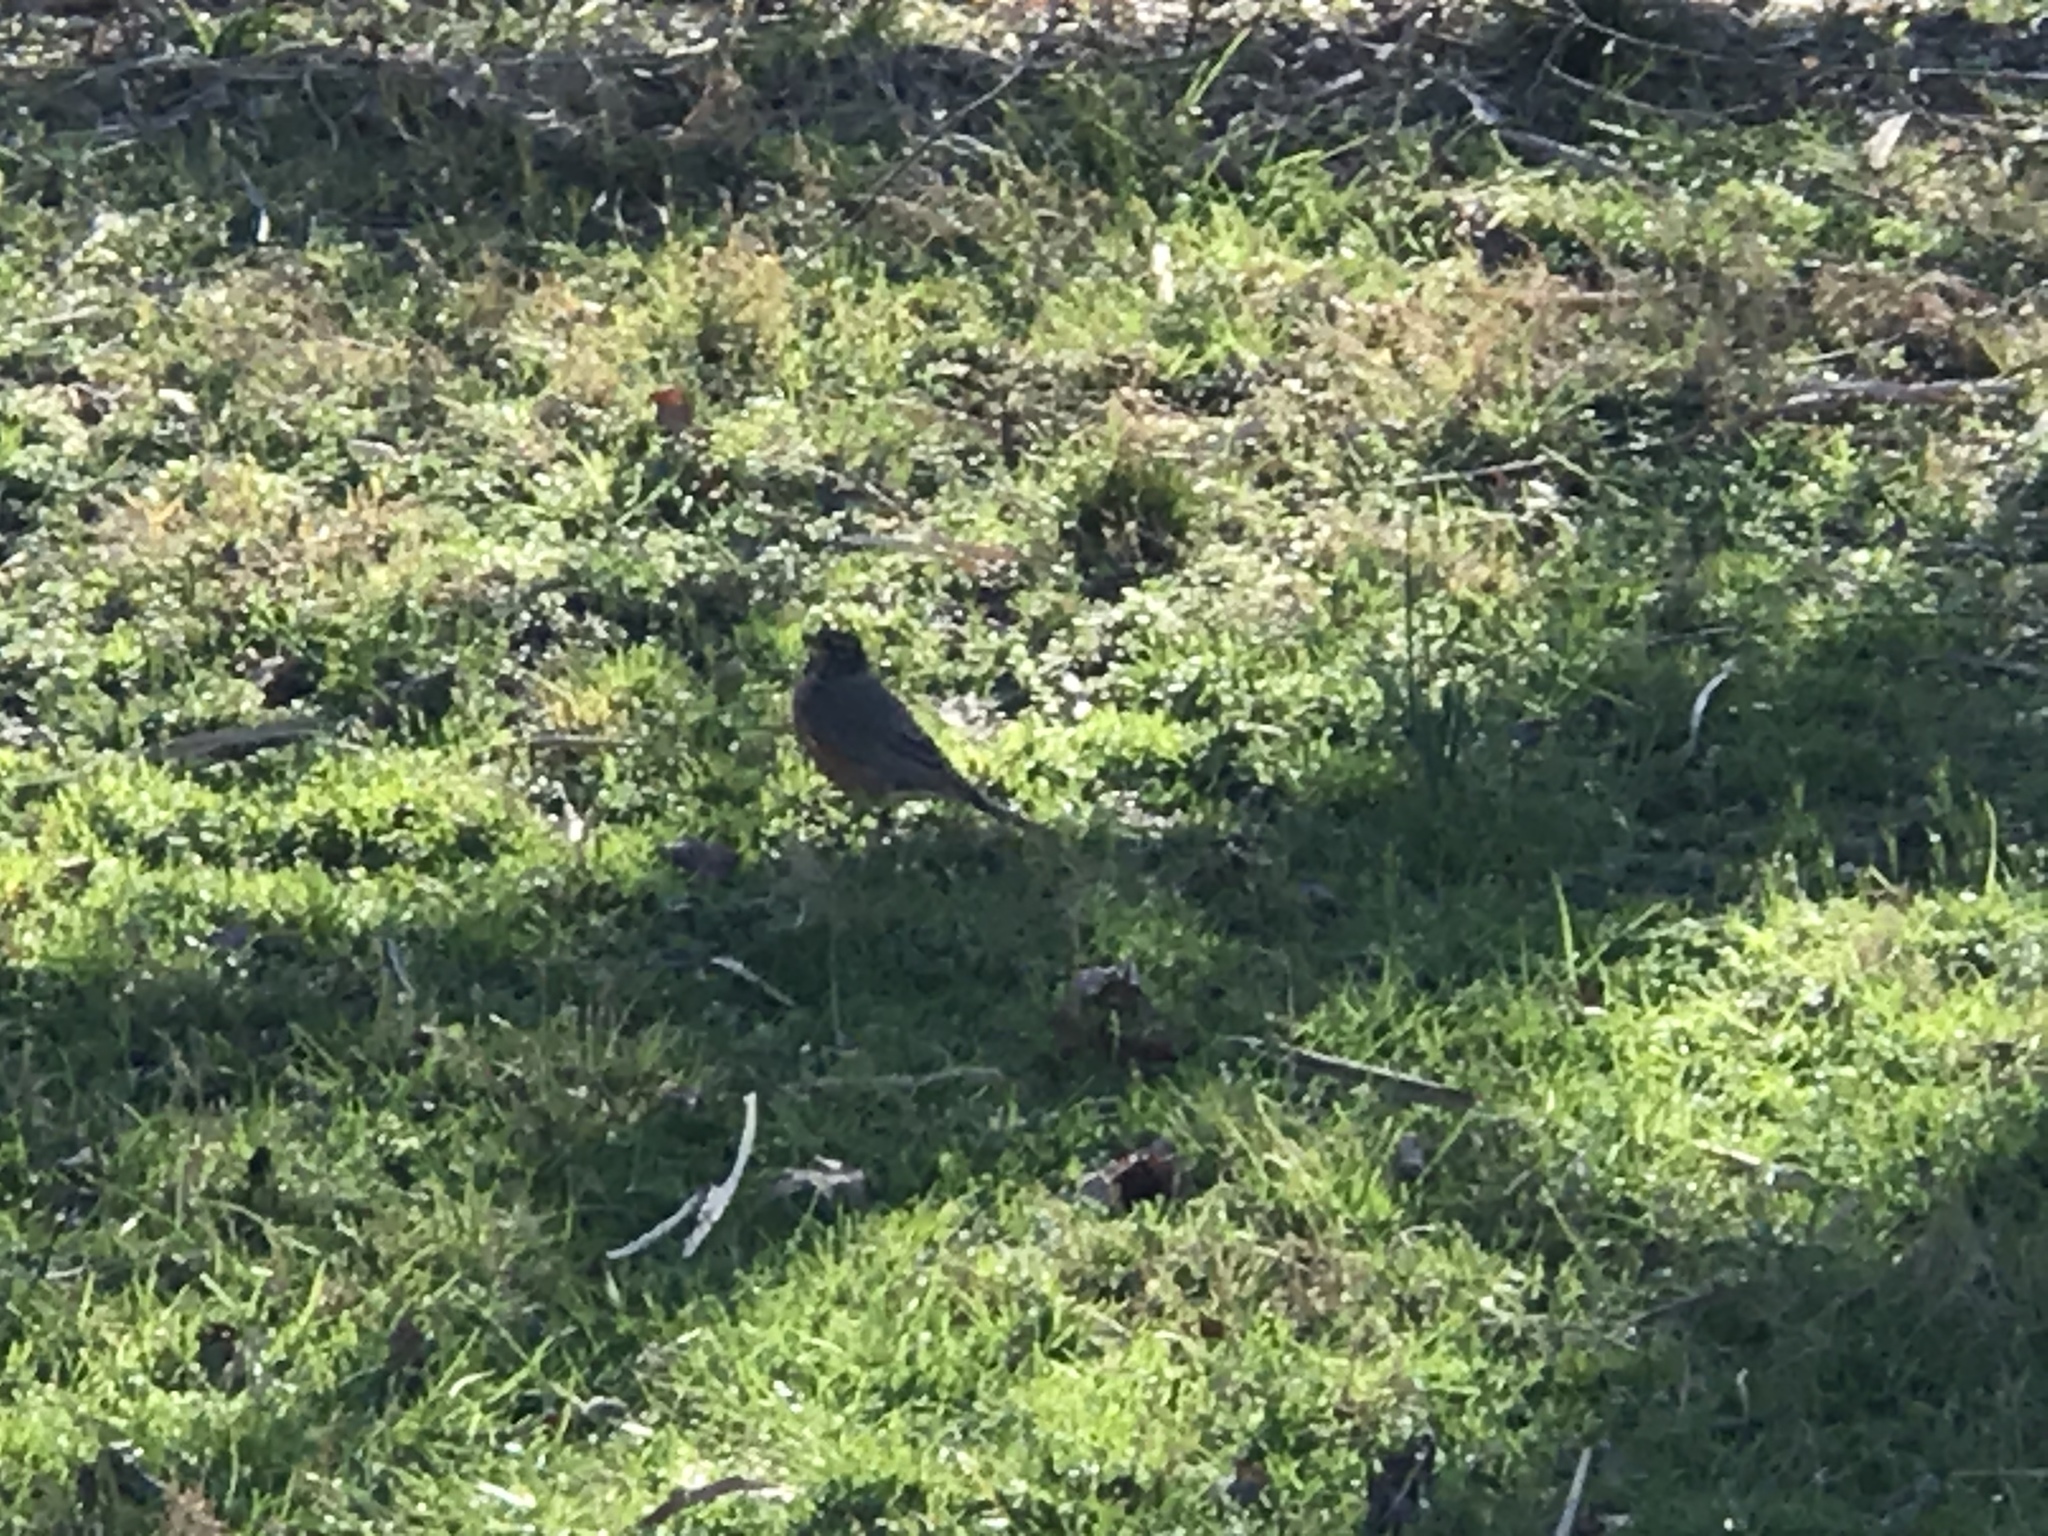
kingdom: Animalia
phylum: Chordata
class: Aves
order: Passeriformes
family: Turdidae
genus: Turdus
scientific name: Turdus migratorius
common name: American robin
